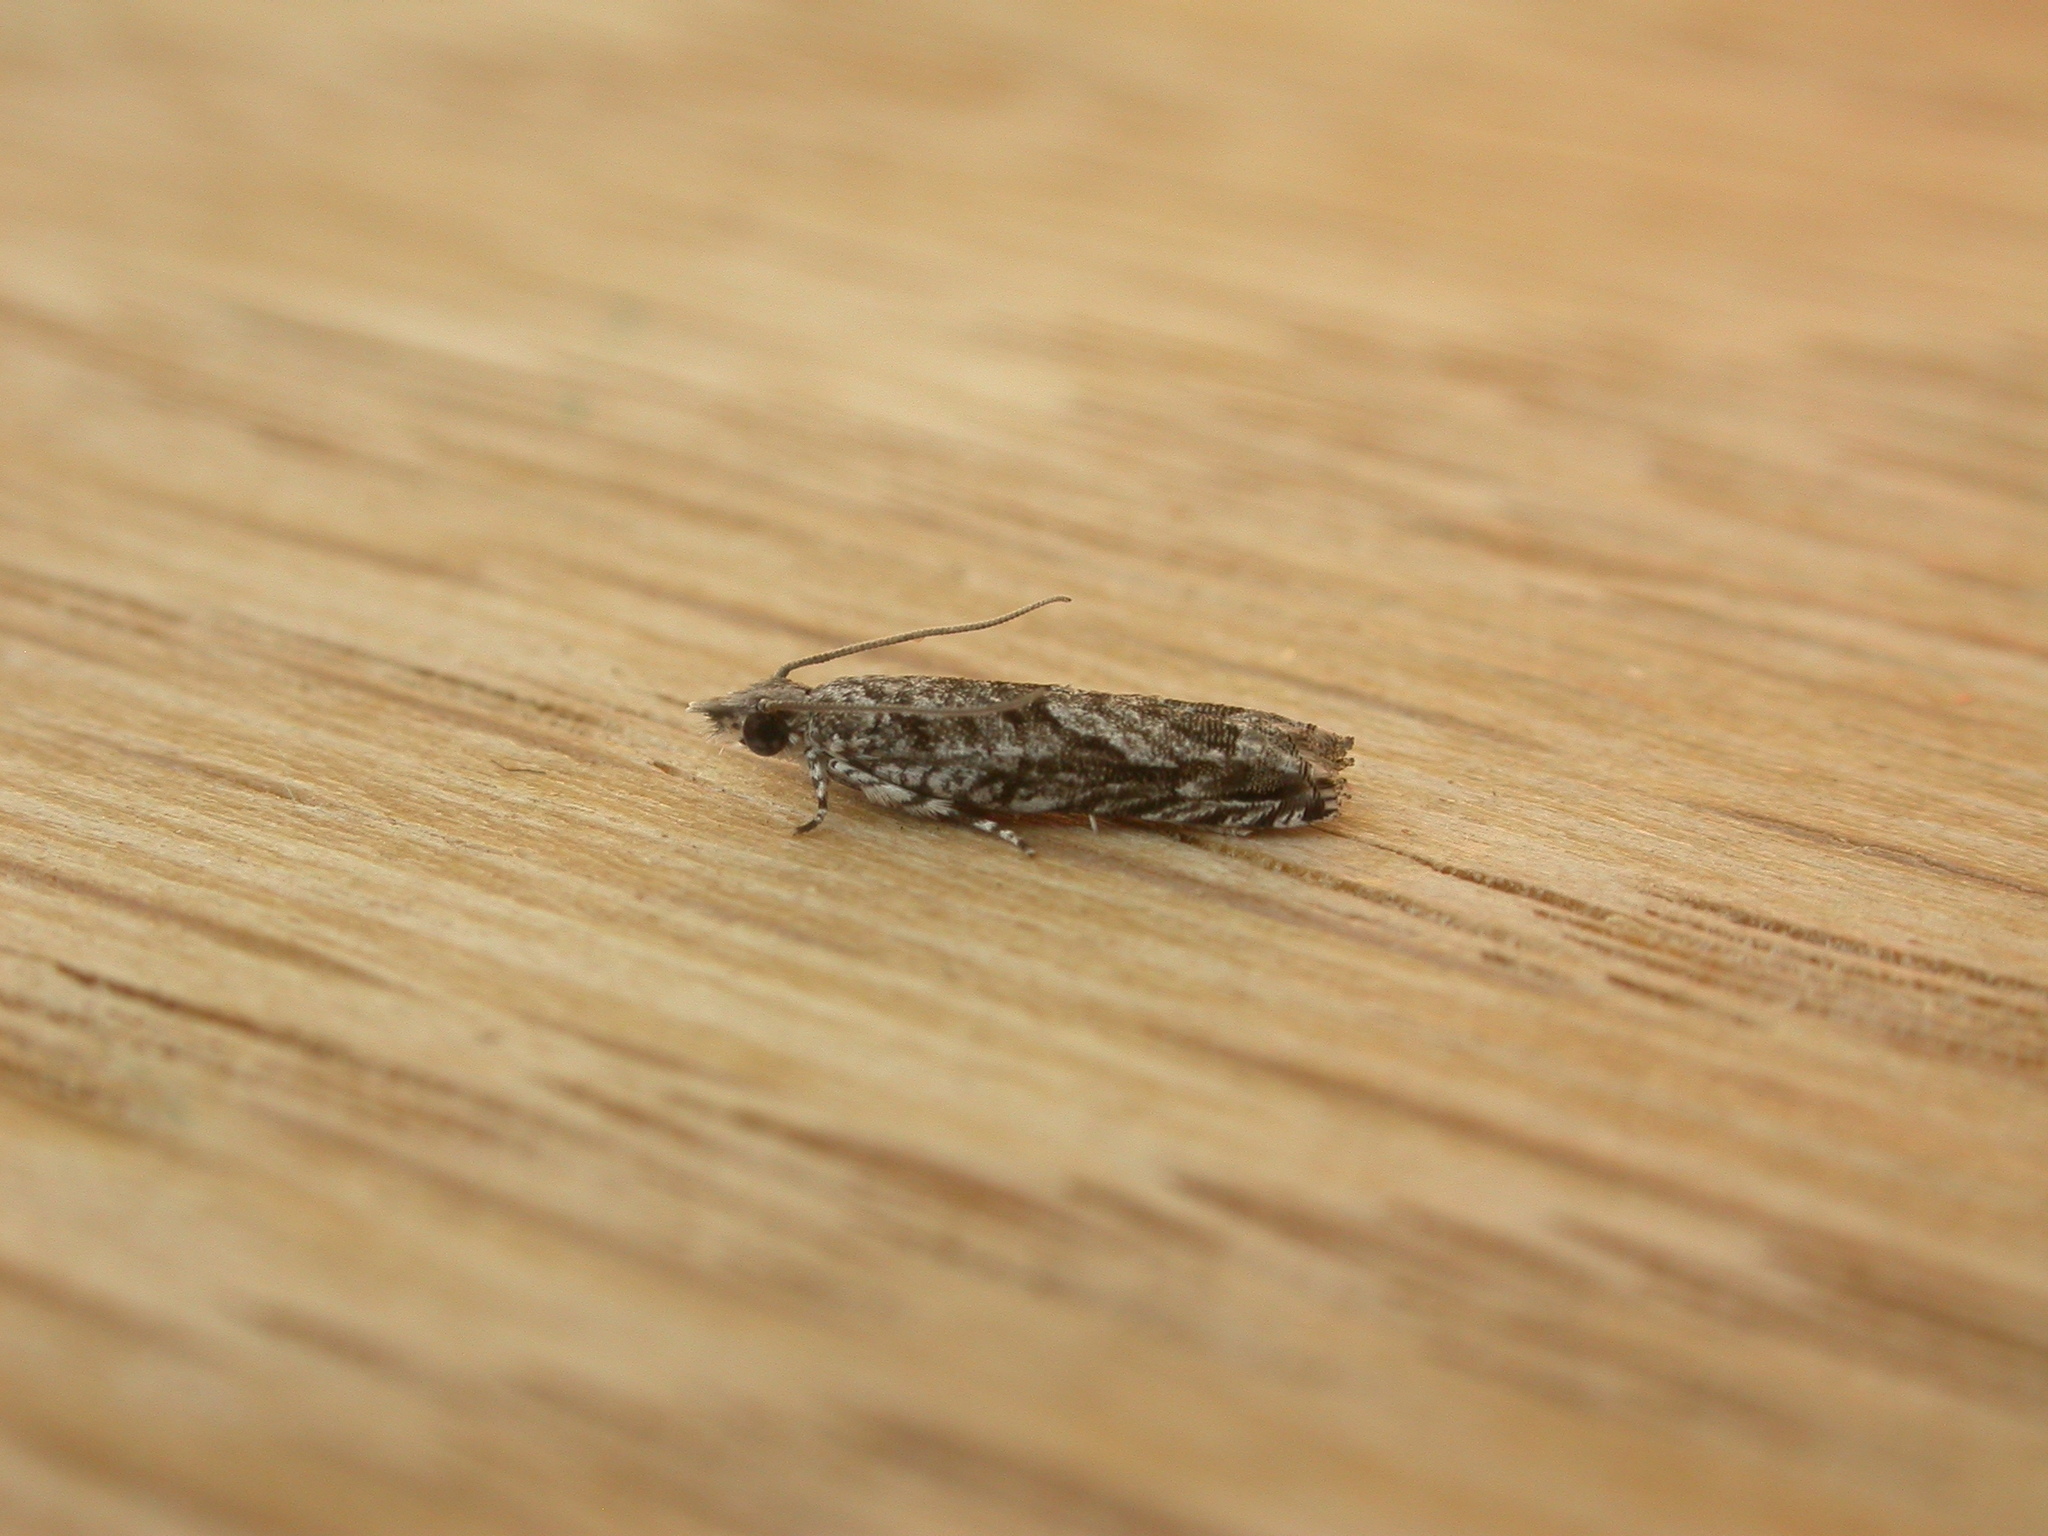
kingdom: Animalia
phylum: Arthropoda
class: Insecta
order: Lepidoptera
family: Tortricidae
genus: Holocola
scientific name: Holocola thalassinana
